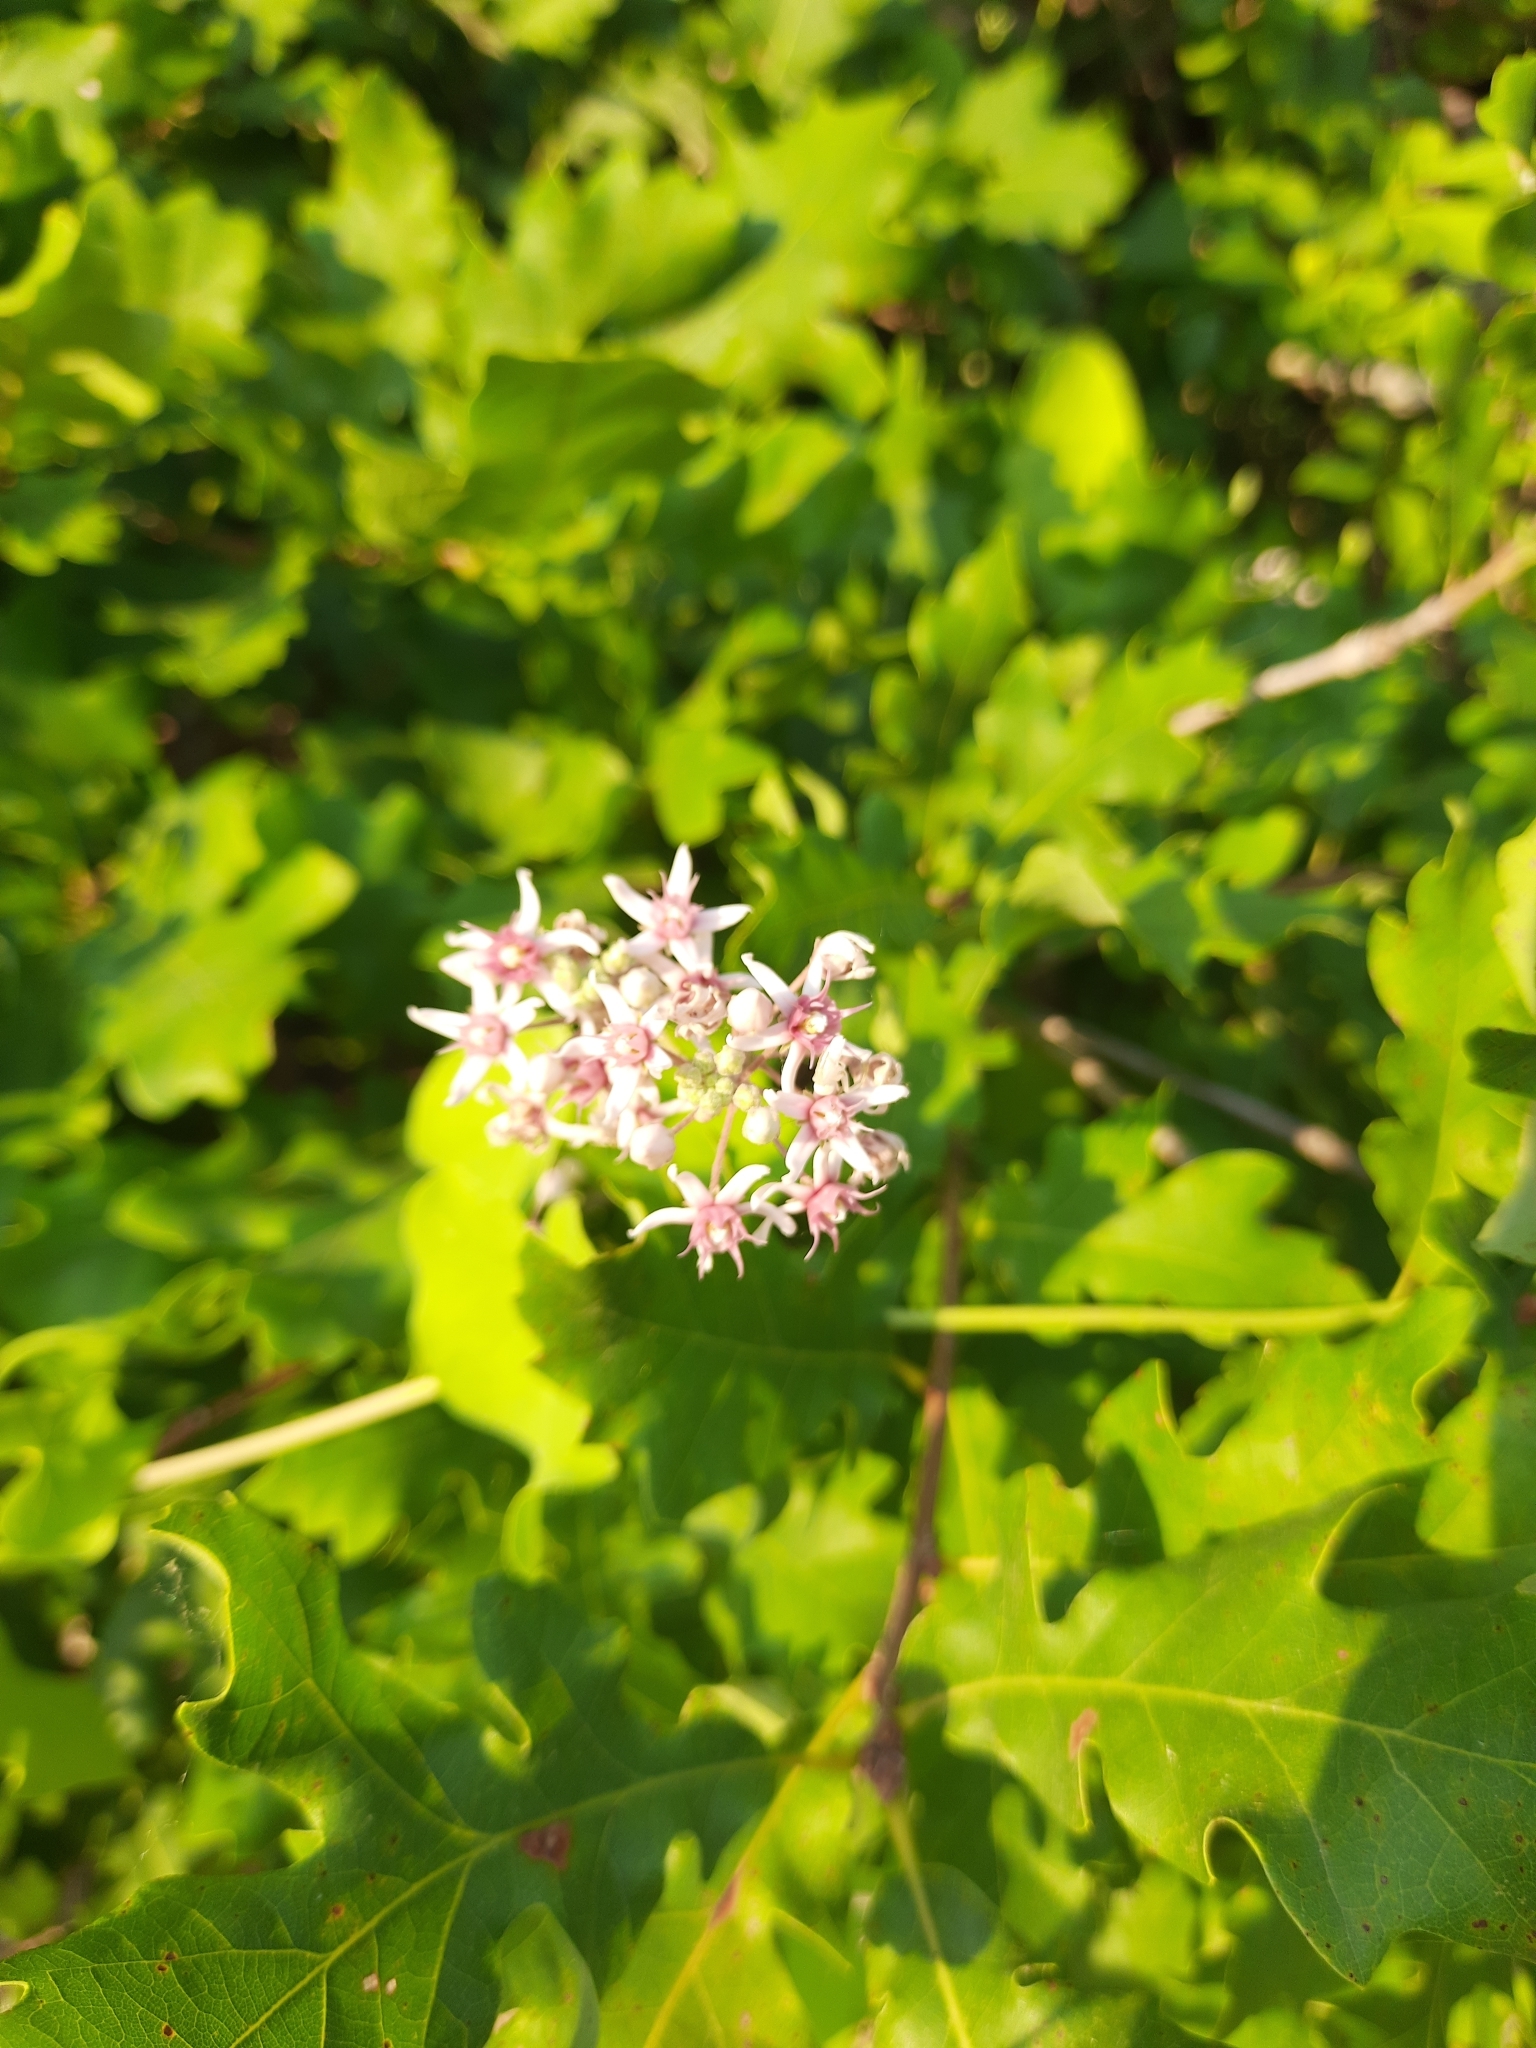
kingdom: Plantae
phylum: Tracheophyta
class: Magnoliopsida
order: Gentianales
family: Apocynaceae
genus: Cynanchum
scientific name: Cynanchum acutum
